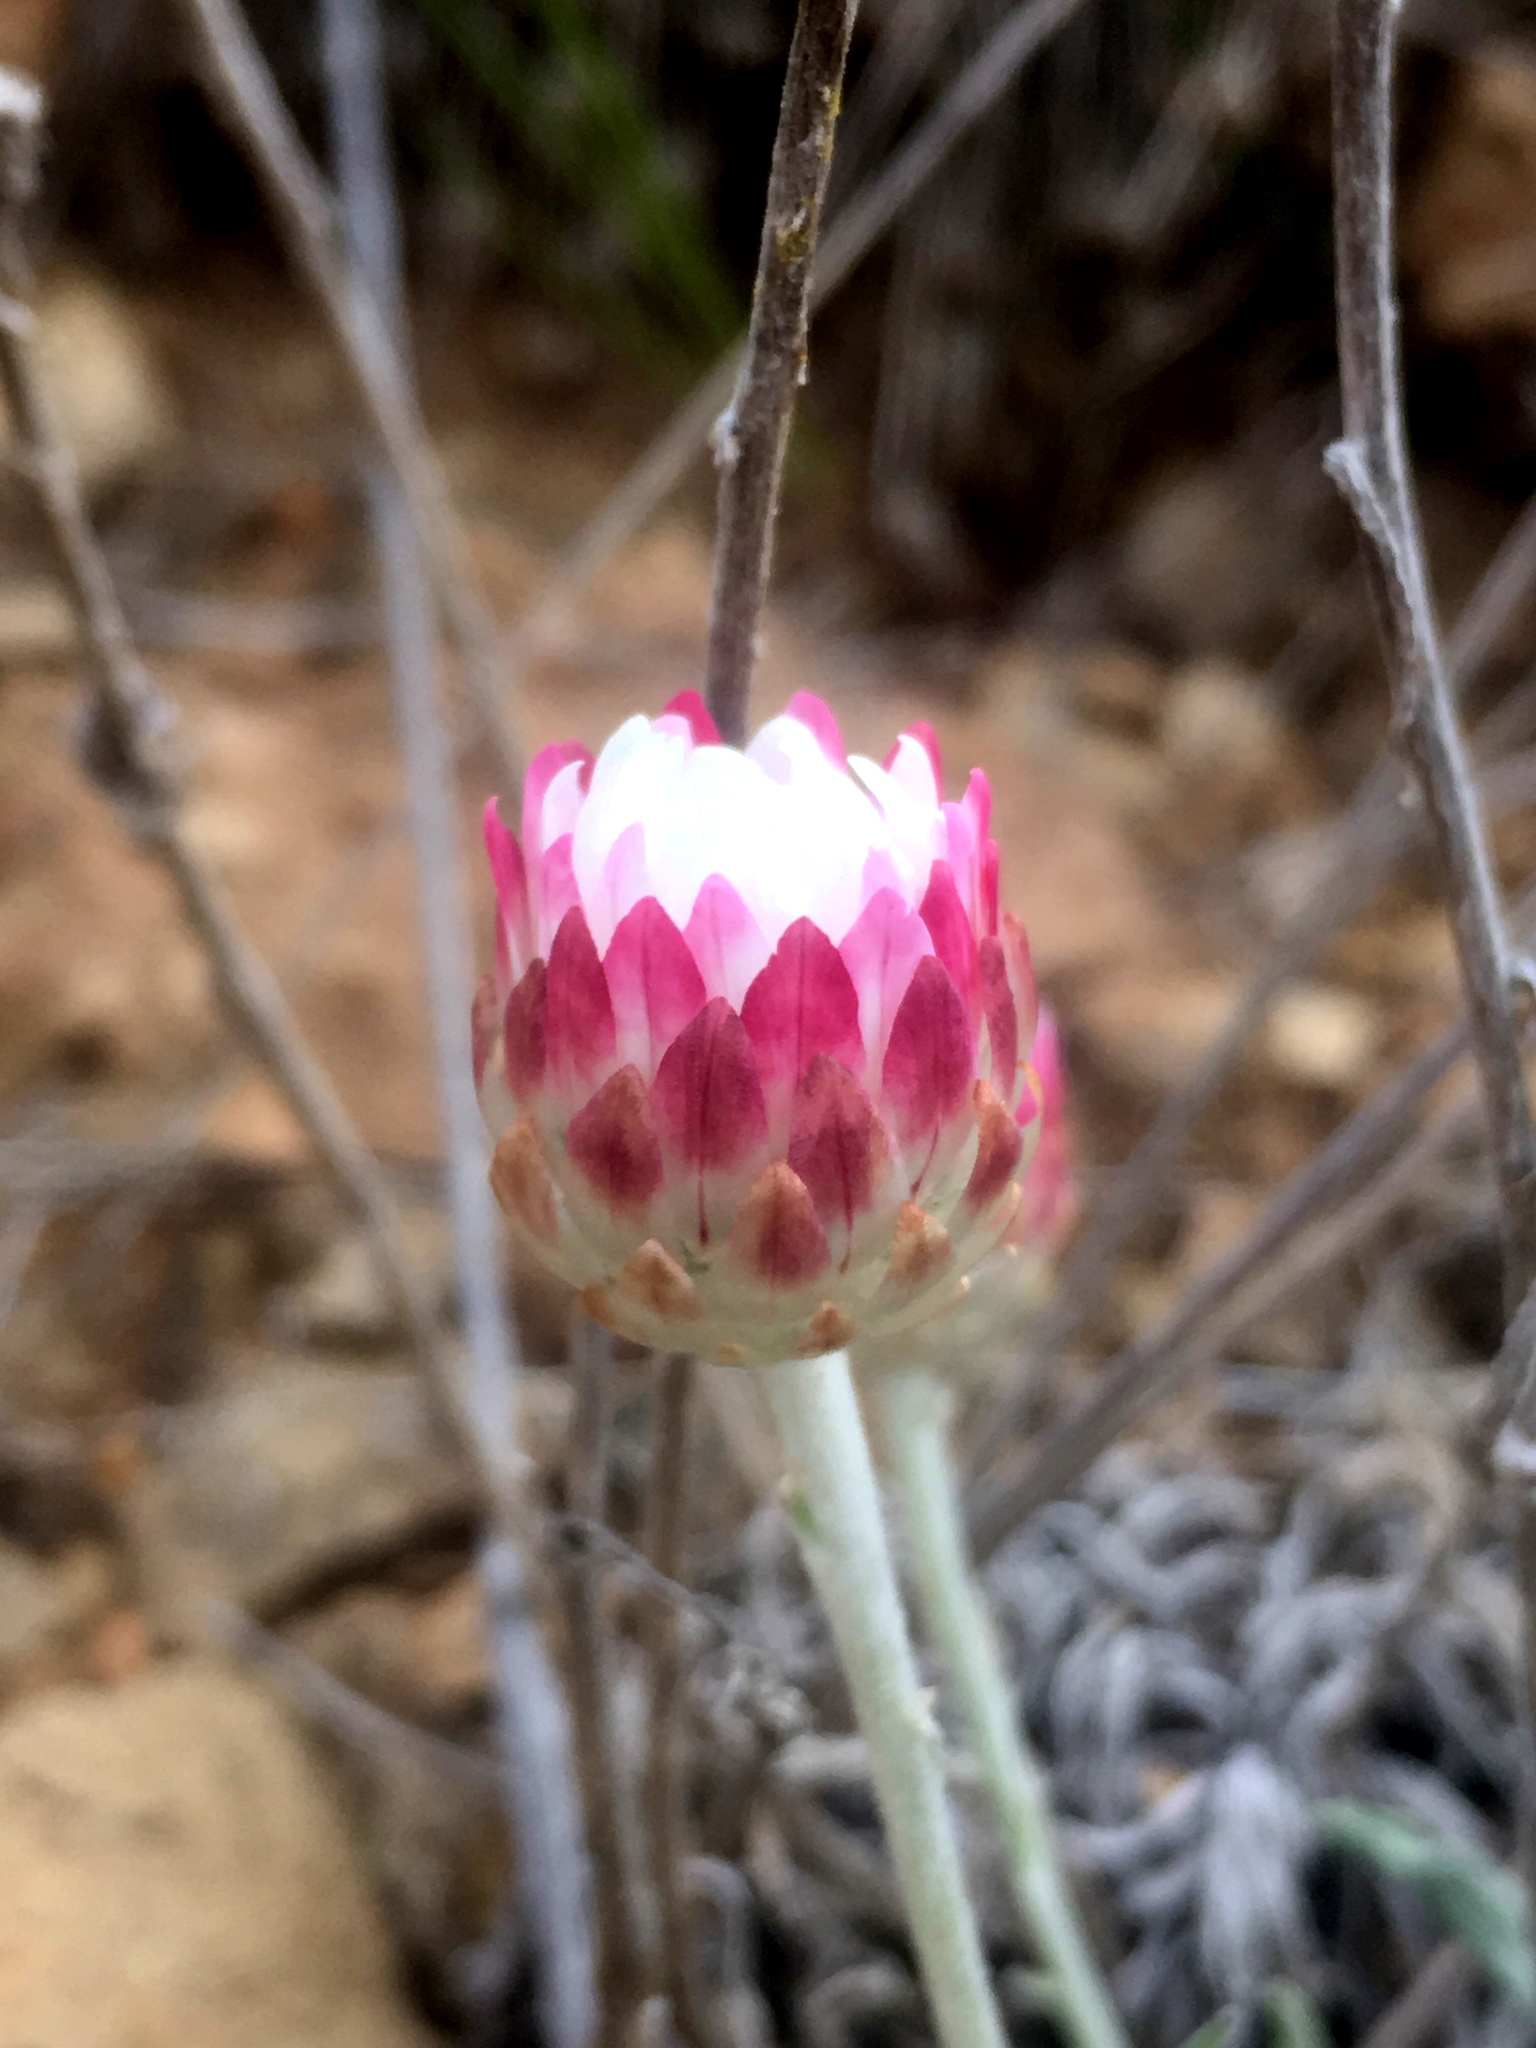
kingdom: Plantae
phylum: Tracheophyta
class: Magnoliopsida
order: Asterales
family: Asteraceae
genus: Leucochrysum
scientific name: Leucochrysum albicans
